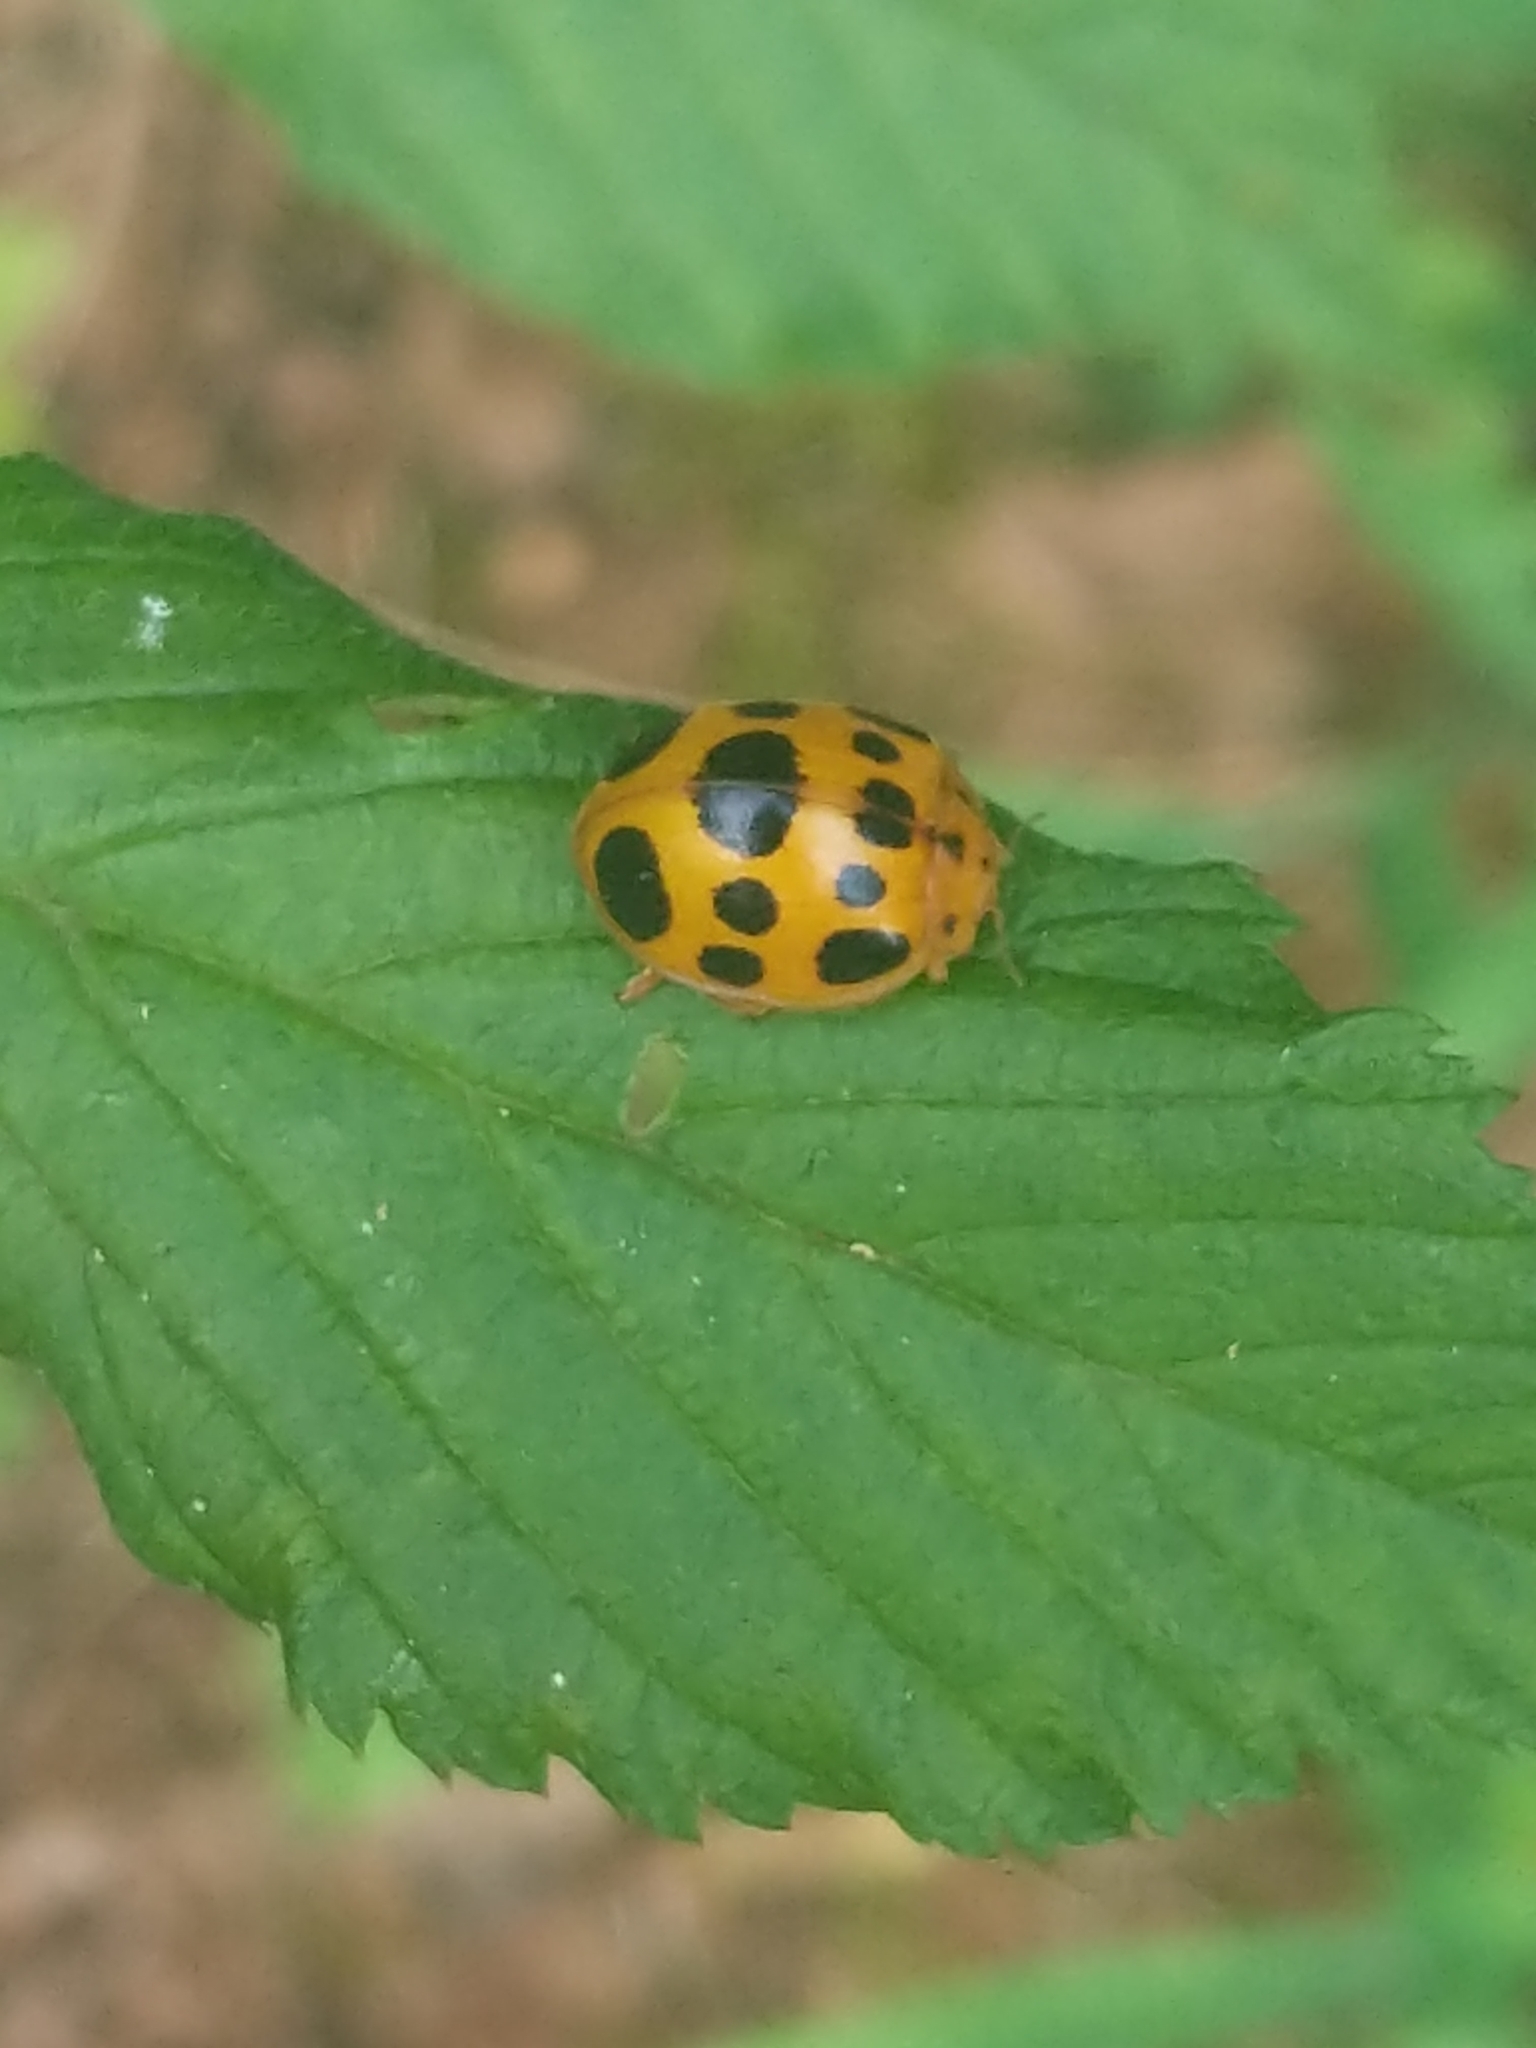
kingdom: Animalia
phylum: Arthropoda
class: Insecta
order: Coleoptera
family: Coccinellidae
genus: Epilachna
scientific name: Epilachna borealis
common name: Squash beetle
